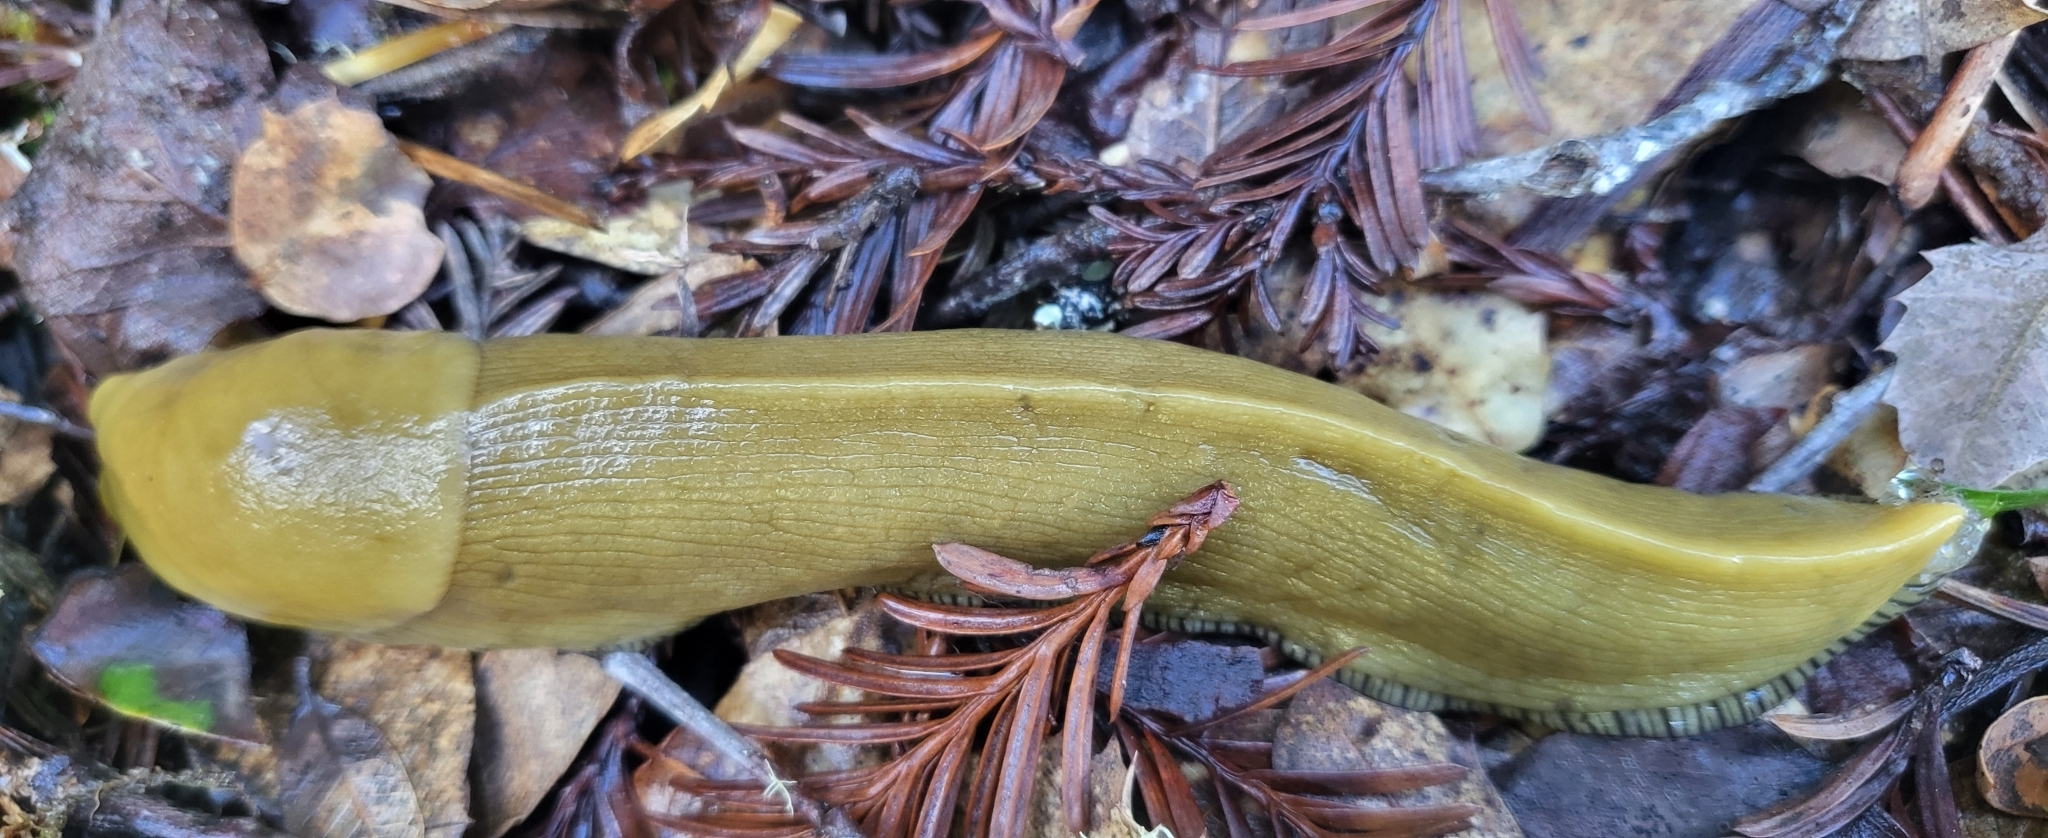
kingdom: Animalia
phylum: Mollusca
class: Gastropoda
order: Stylommatophora
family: Ariolimacidae
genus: Ariolimax
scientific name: Ariolimax buttoni
